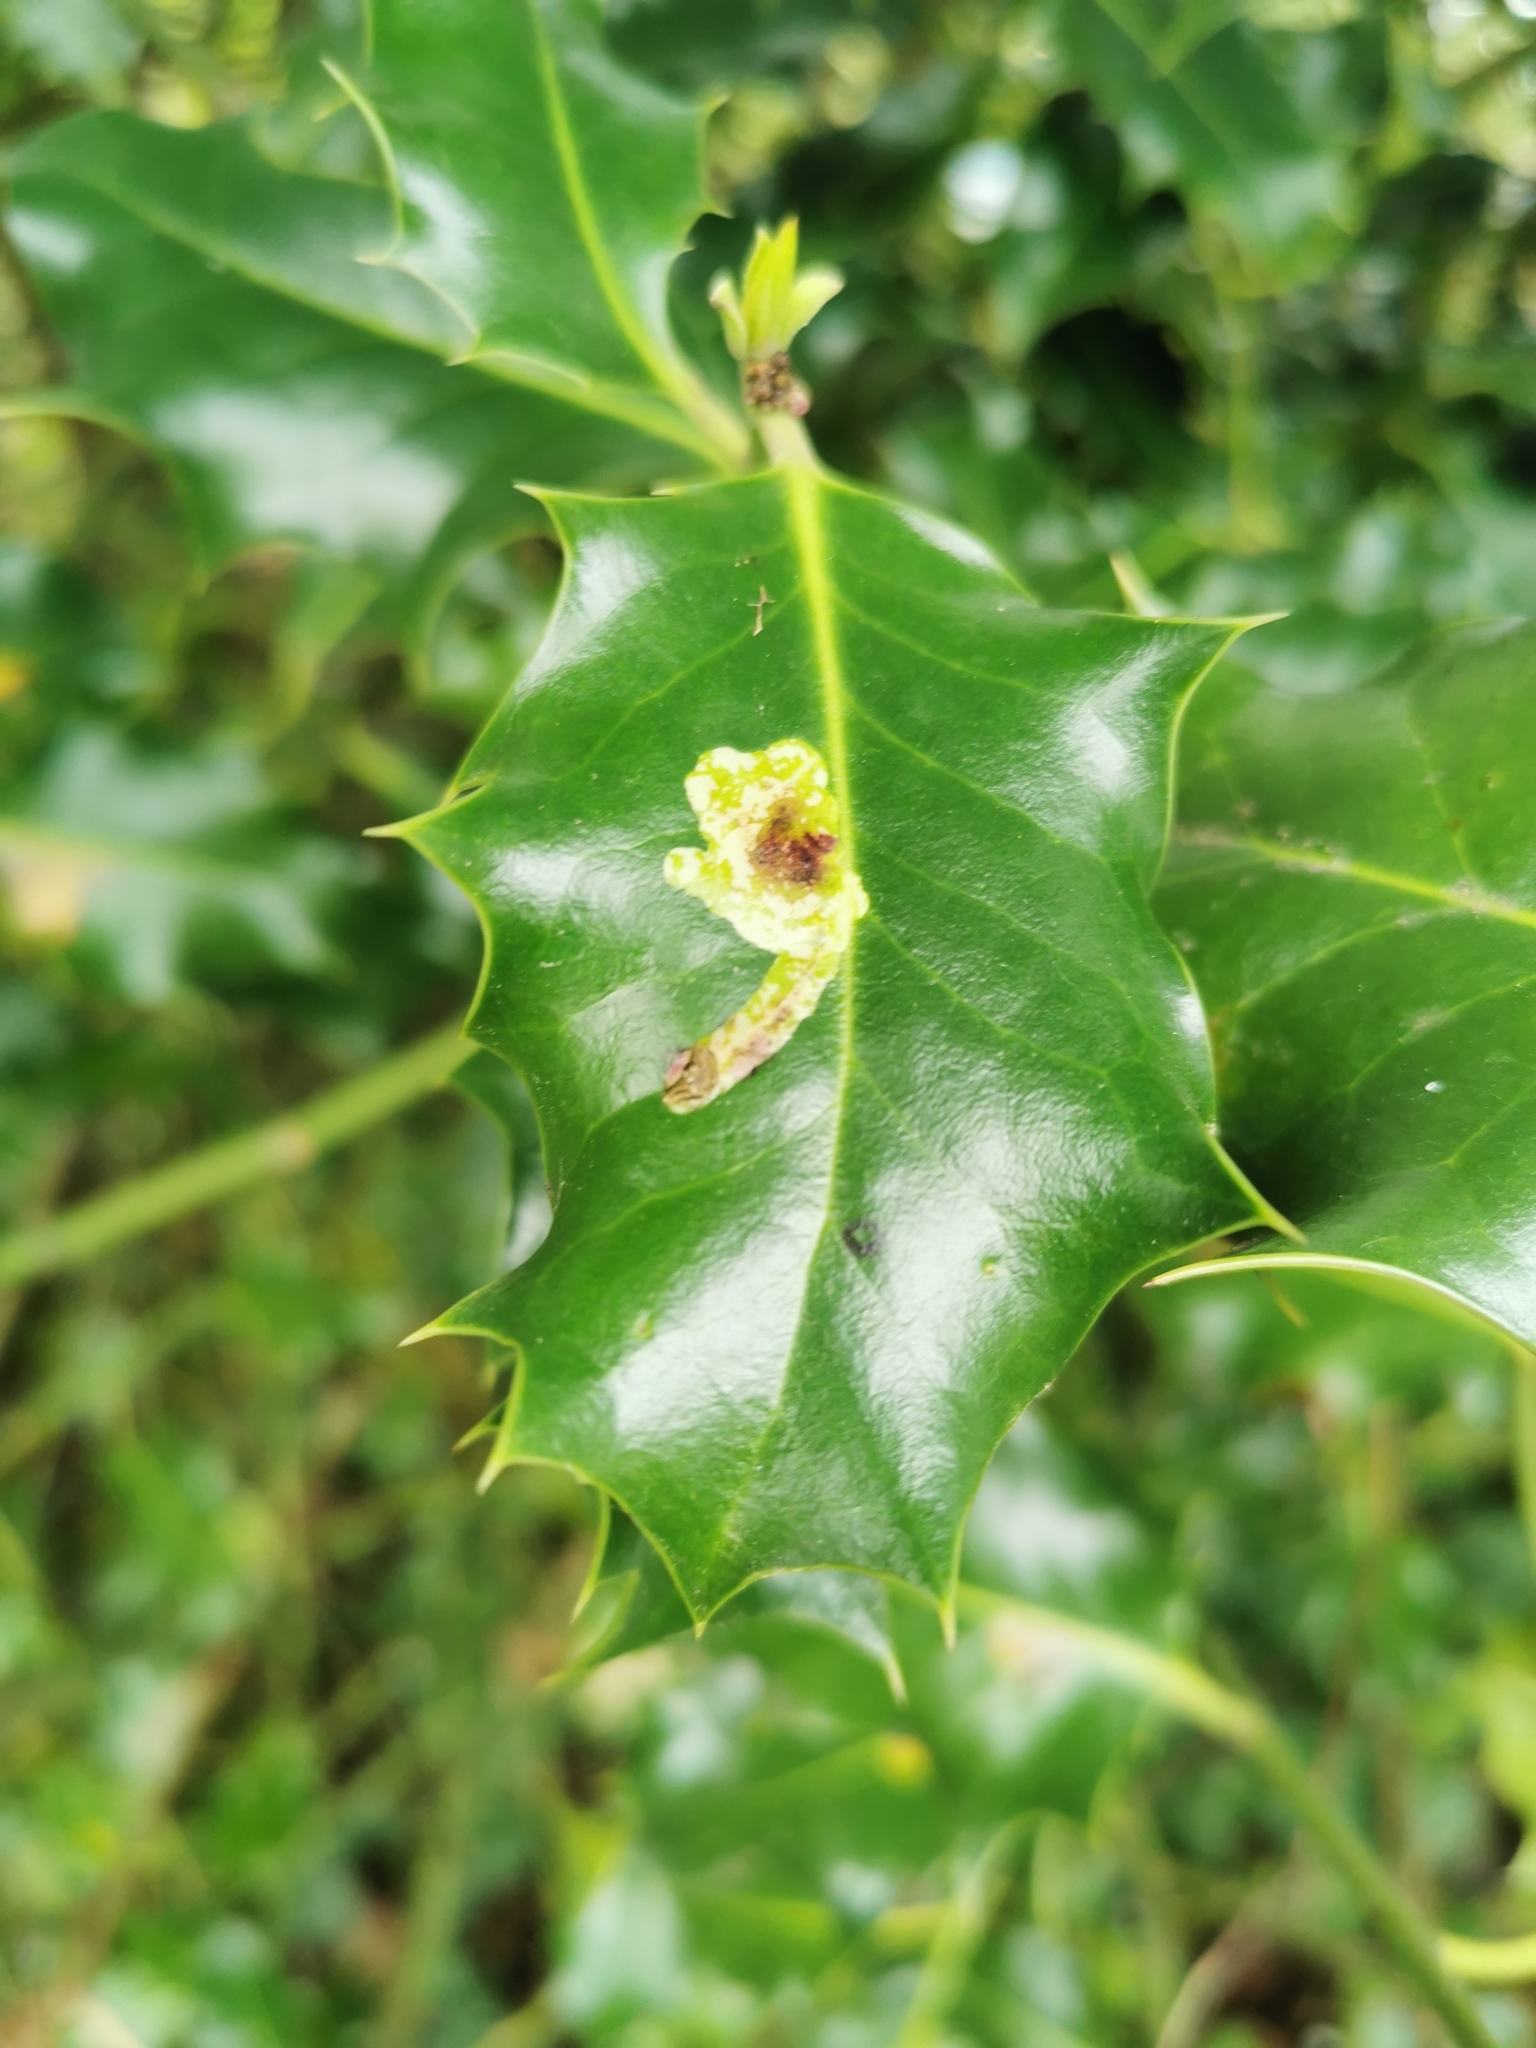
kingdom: Animalia
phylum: Arthropoda
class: Insecta
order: Diptera
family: Agromyzidae
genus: Phytomyza
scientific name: Phytomyza ilicis
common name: Holly leafminer
